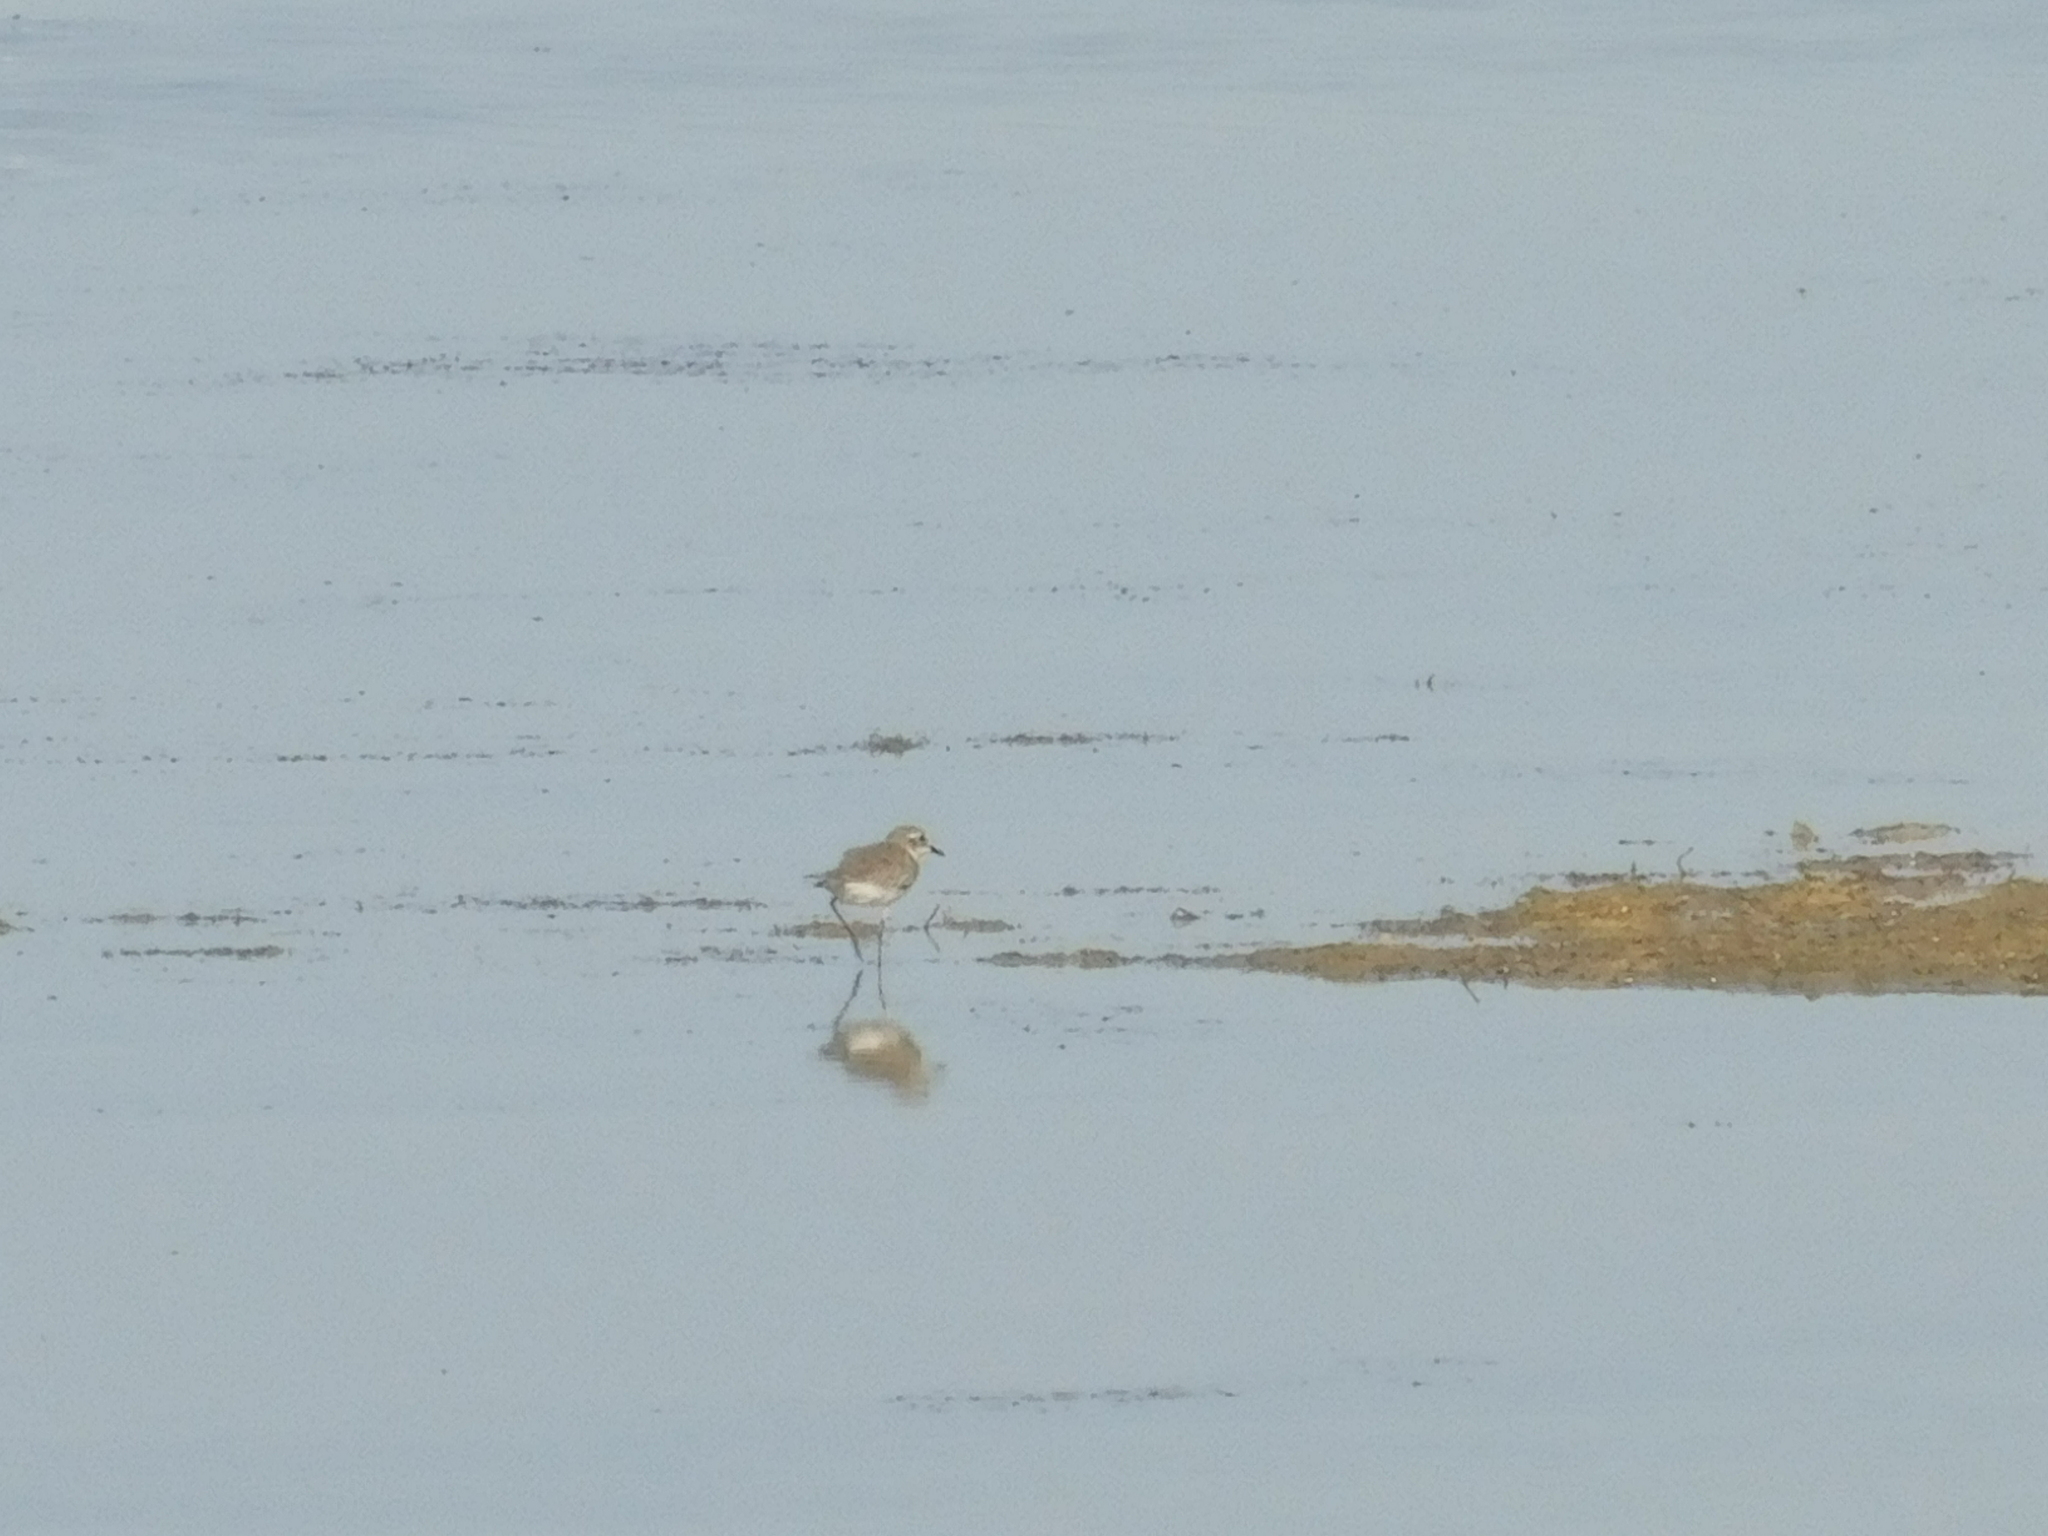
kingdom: Animalia
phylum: Chordata
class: Aves
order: Charadriiformes
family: Charadriidae
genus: Charadrius
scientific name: Charadrius leschenaultii
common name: Greater sand plover
